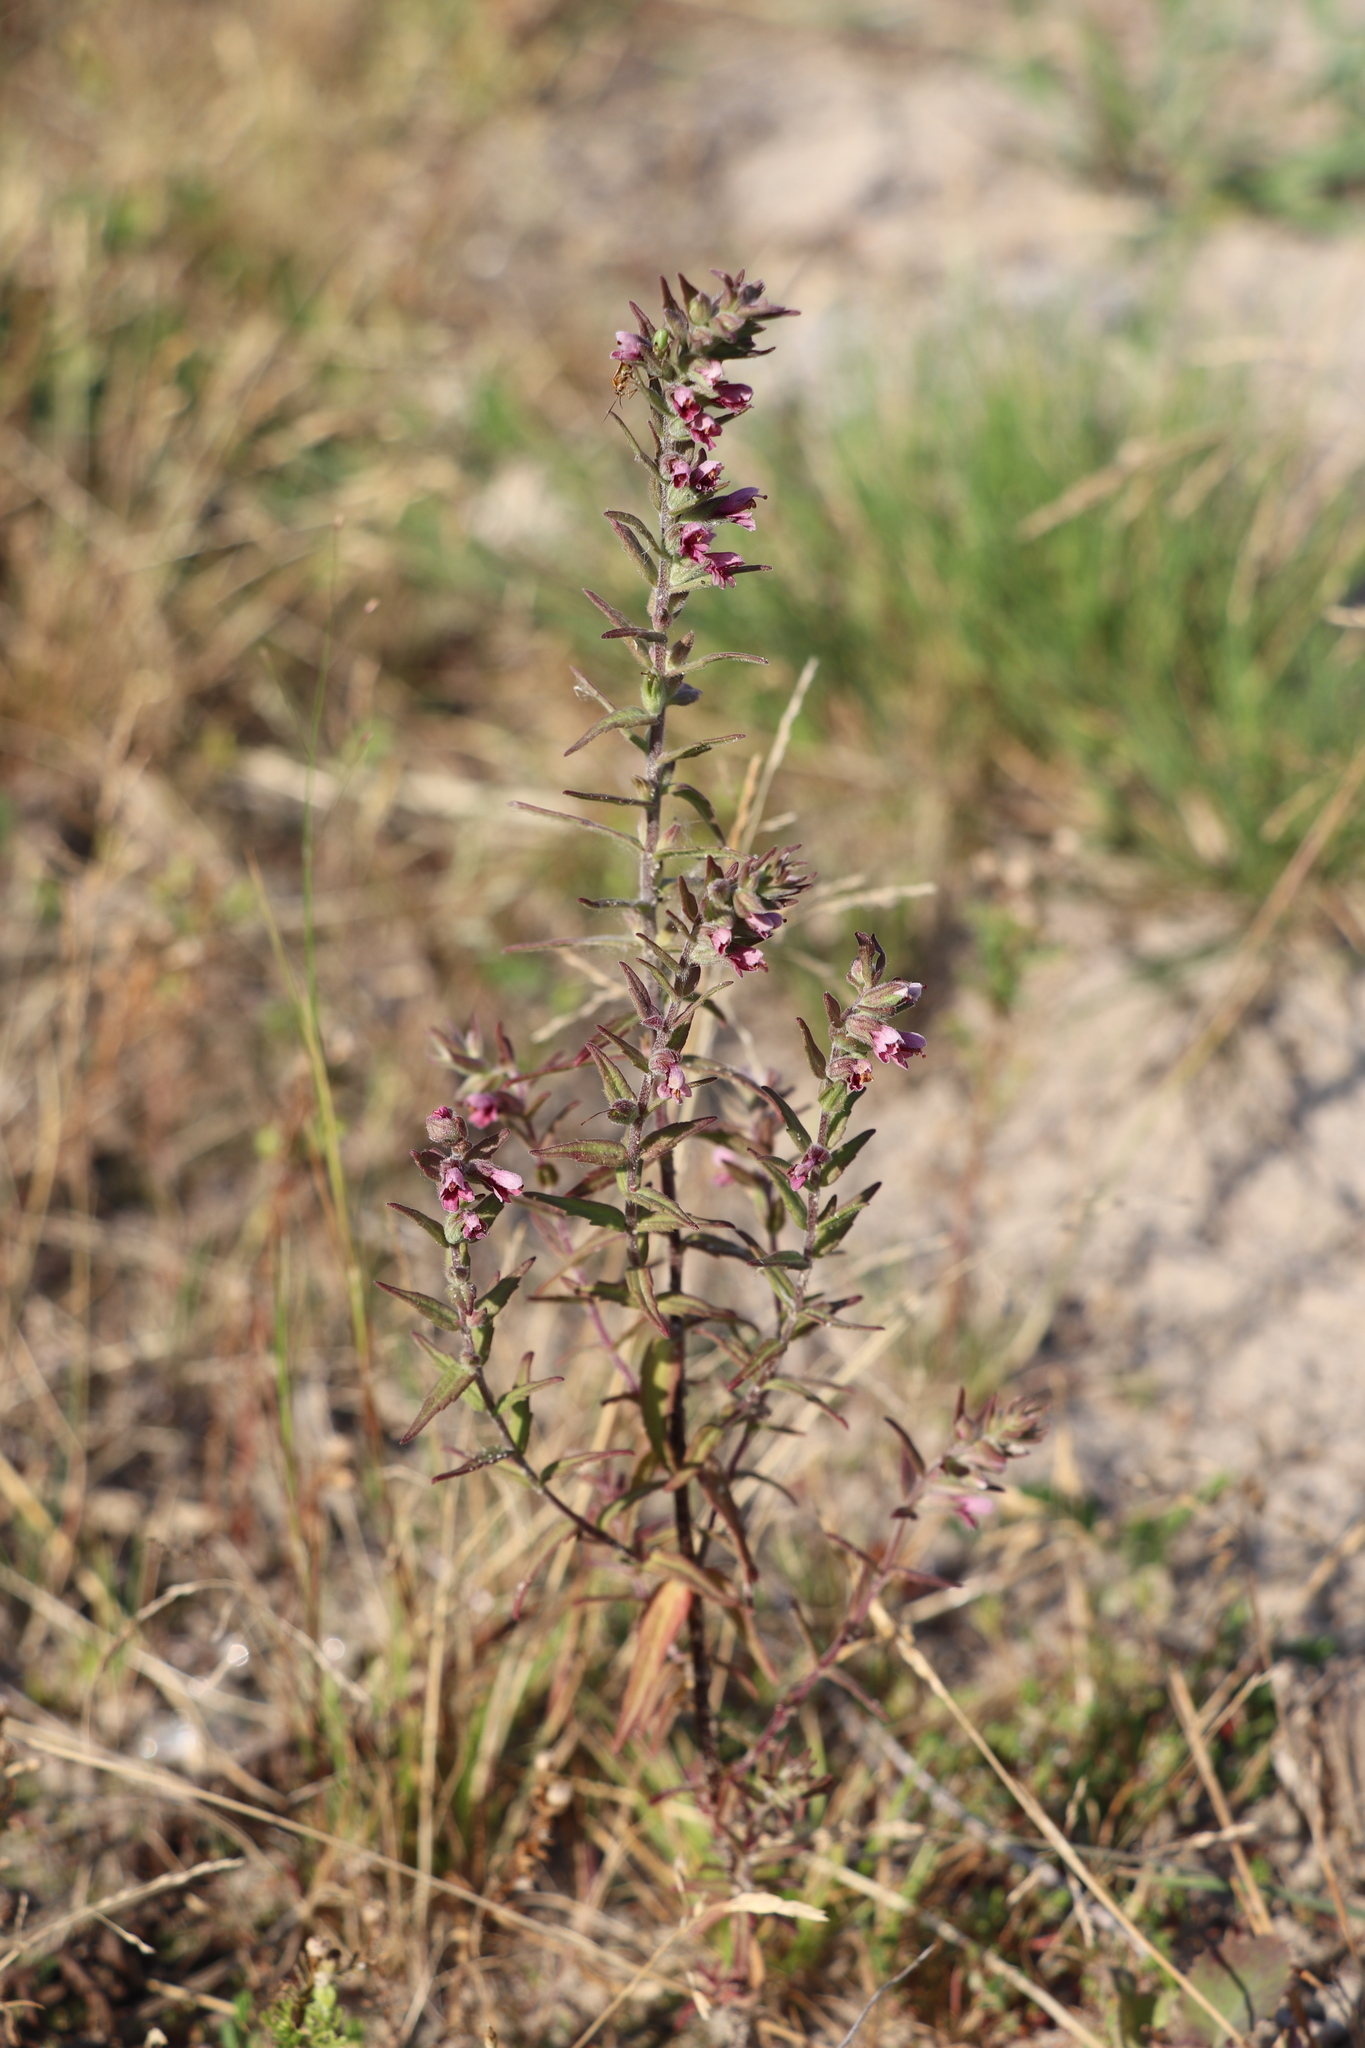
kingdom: Plantae
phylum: Tracheophyta
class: Magnoliopsida
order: Lamiales
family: Orobanchaceae
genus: Odontites
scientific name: Odontites vulgaris
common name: Broomrape
